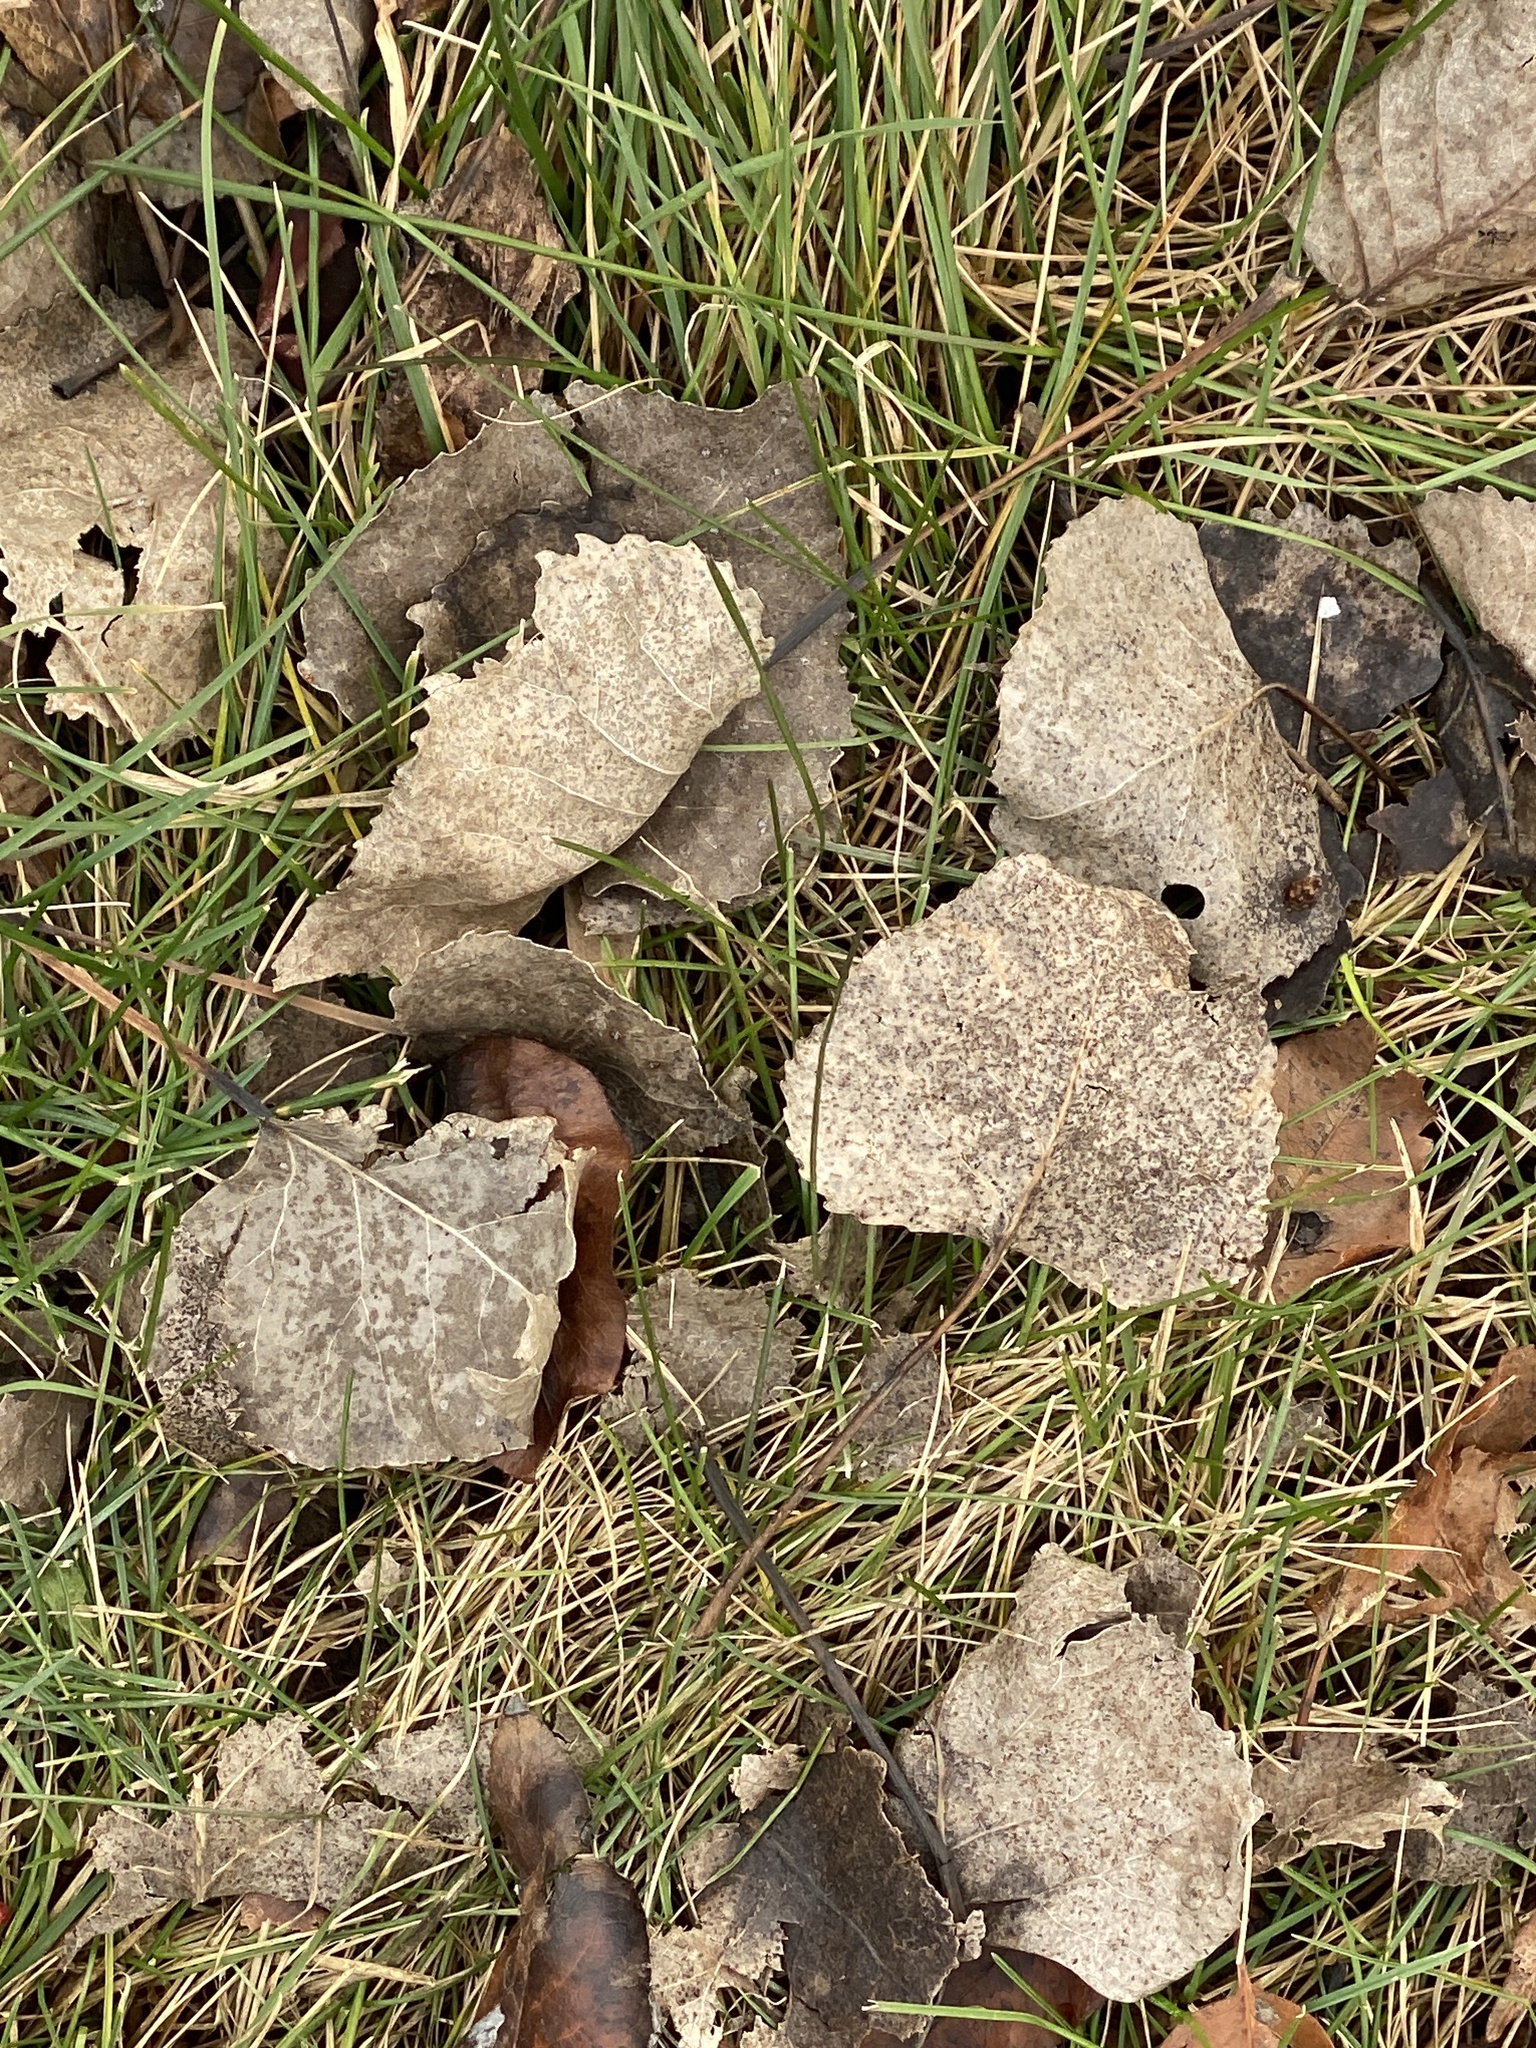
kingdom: Plantae
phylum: Tracheophyta
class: Magnoliopsida
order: Malpighiales
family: Salicaceae
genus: Populus
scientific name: Populus deltoides
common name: Eastern cottonwood
